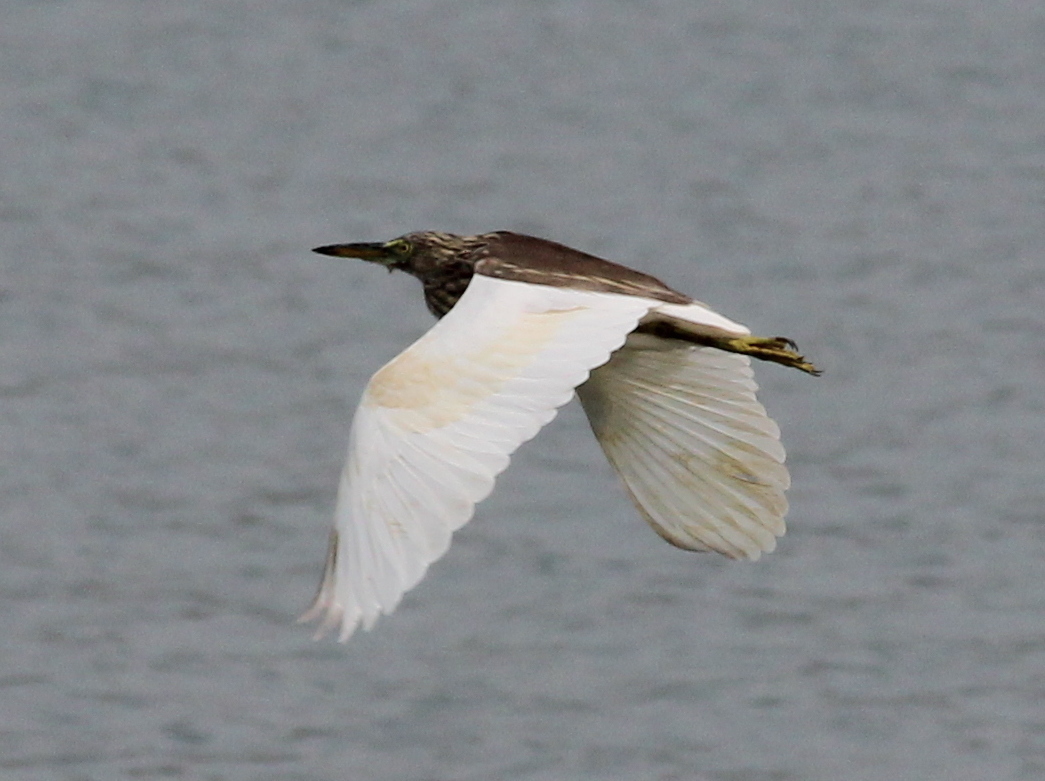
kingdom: Animalia
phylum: Chordata
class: Aves
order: Pelecaniformes
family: Ardeidae
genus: Ardeola
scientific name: Ardeola grayii
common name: Indian pond heron
